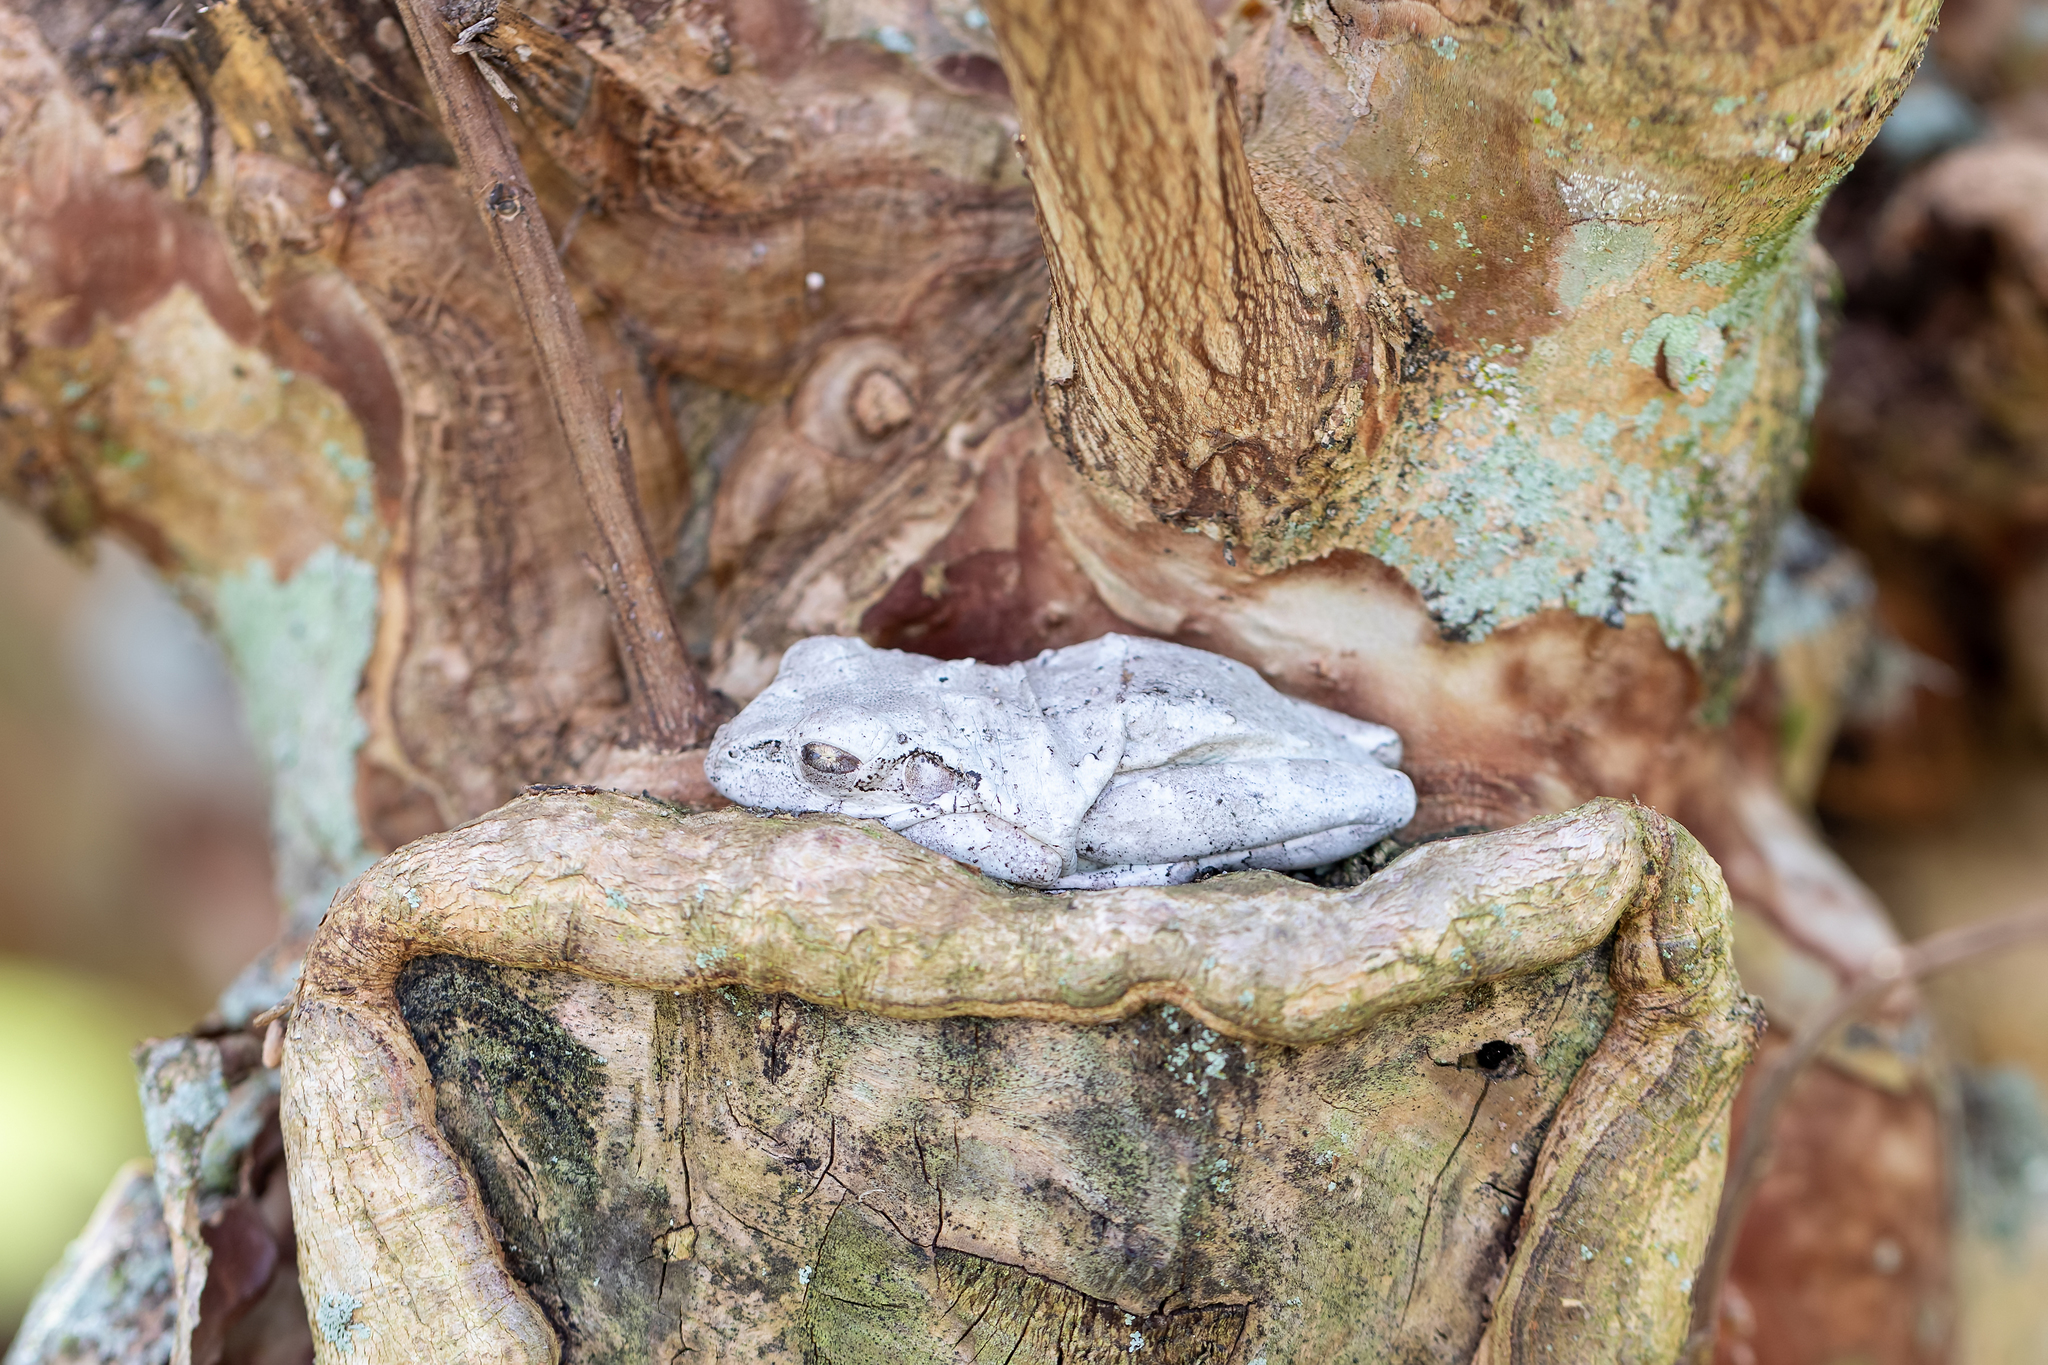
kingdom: Animalia
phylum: Chordata
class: Amphibia
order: Anura
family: Hylidae
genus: Osteopilus
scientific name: Osteopilus septentrionalis
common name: Cuban treefrog
